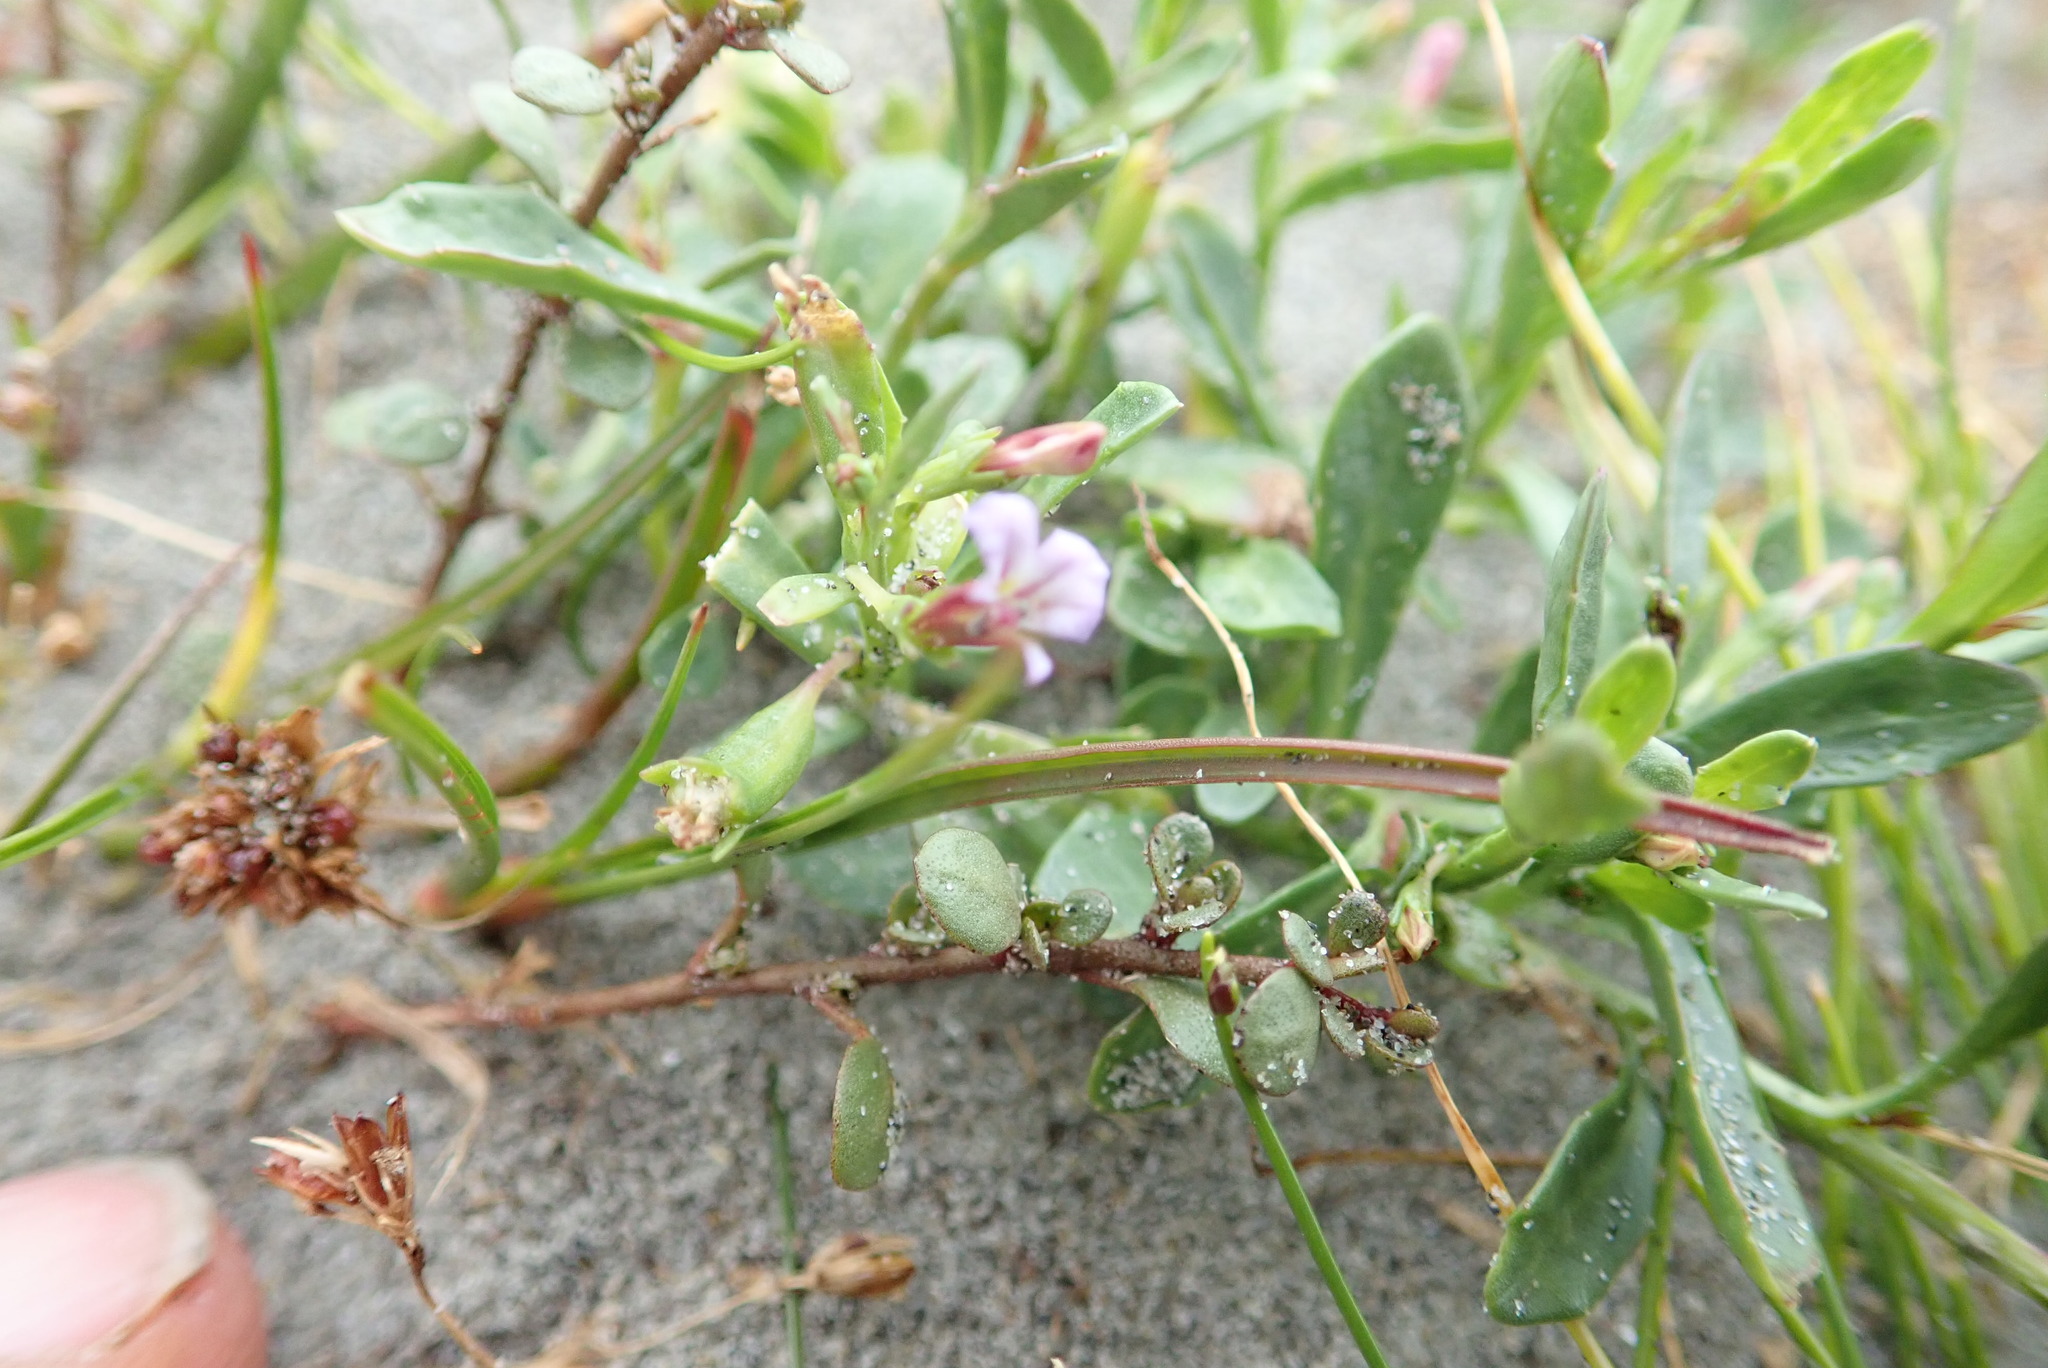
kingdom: Plantae
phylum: Tracheophyta
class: Magnoliopsida
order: Asterales
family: Campanulaceae
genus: Lobelia
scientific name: Lobelia anceps
